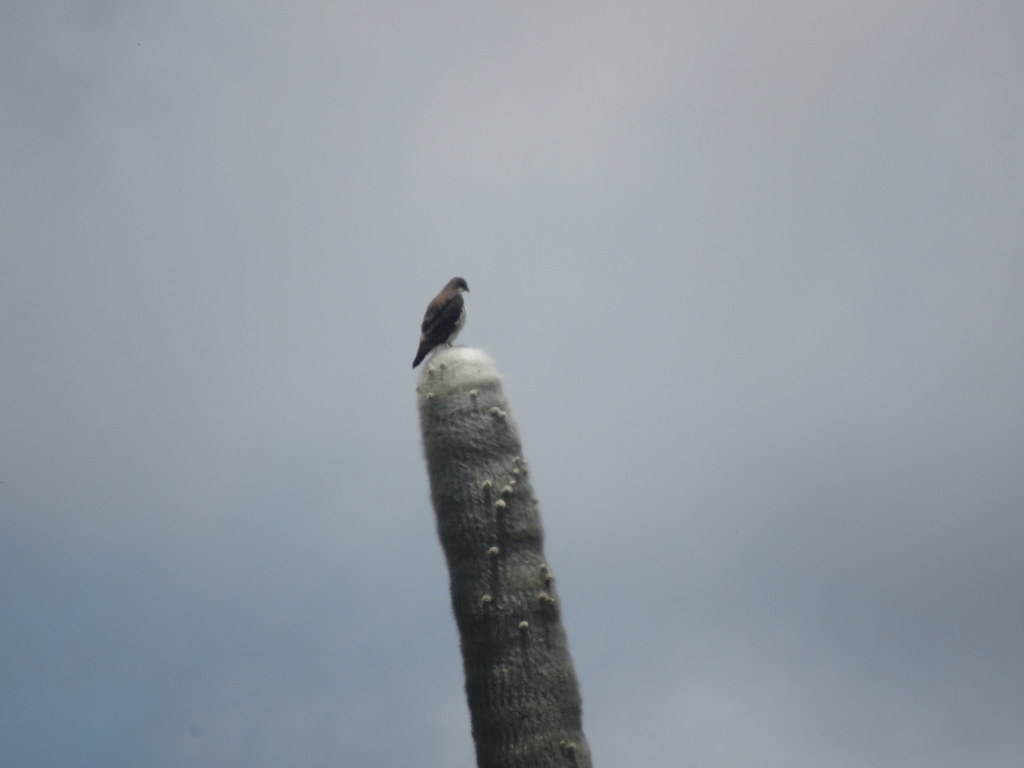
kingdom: Animalia
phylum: Chordata
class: Aves
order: Accipitriformes
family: Accipitridae
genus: Buteo
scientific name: Buteo polyosoma
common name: Variable hawk
